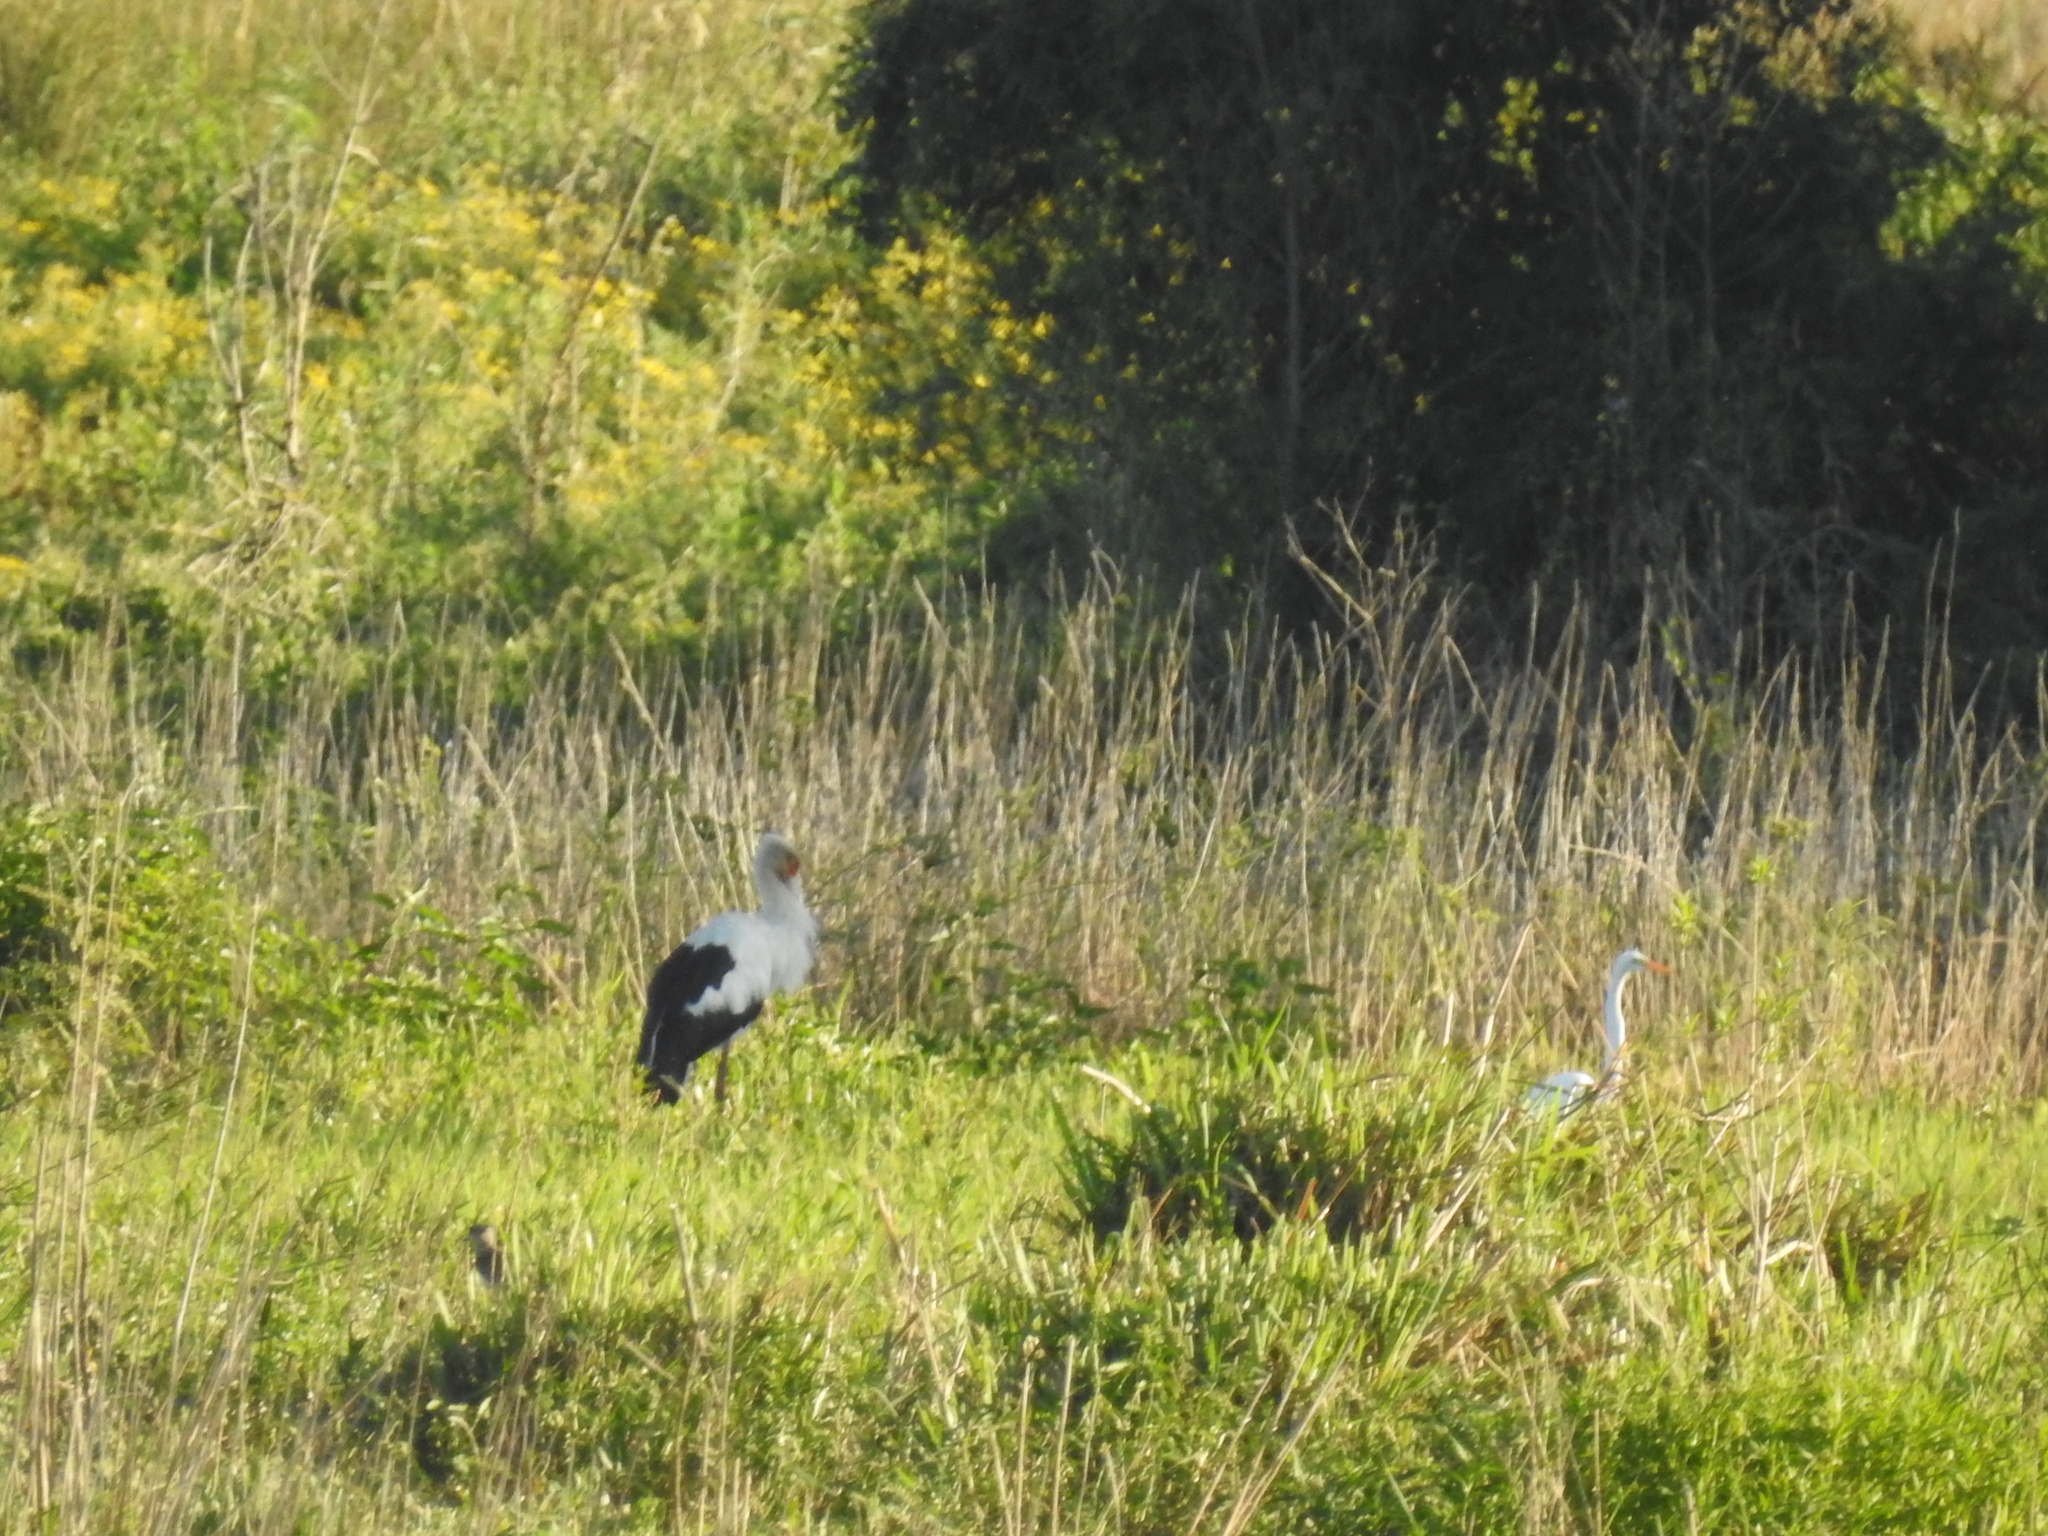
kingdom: Animalia
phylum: Chordata
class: Aves
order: Ciconiiformes
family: Ciconiidae
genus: Ciconia
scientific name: Ciconia maguari
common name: Maguari stork
